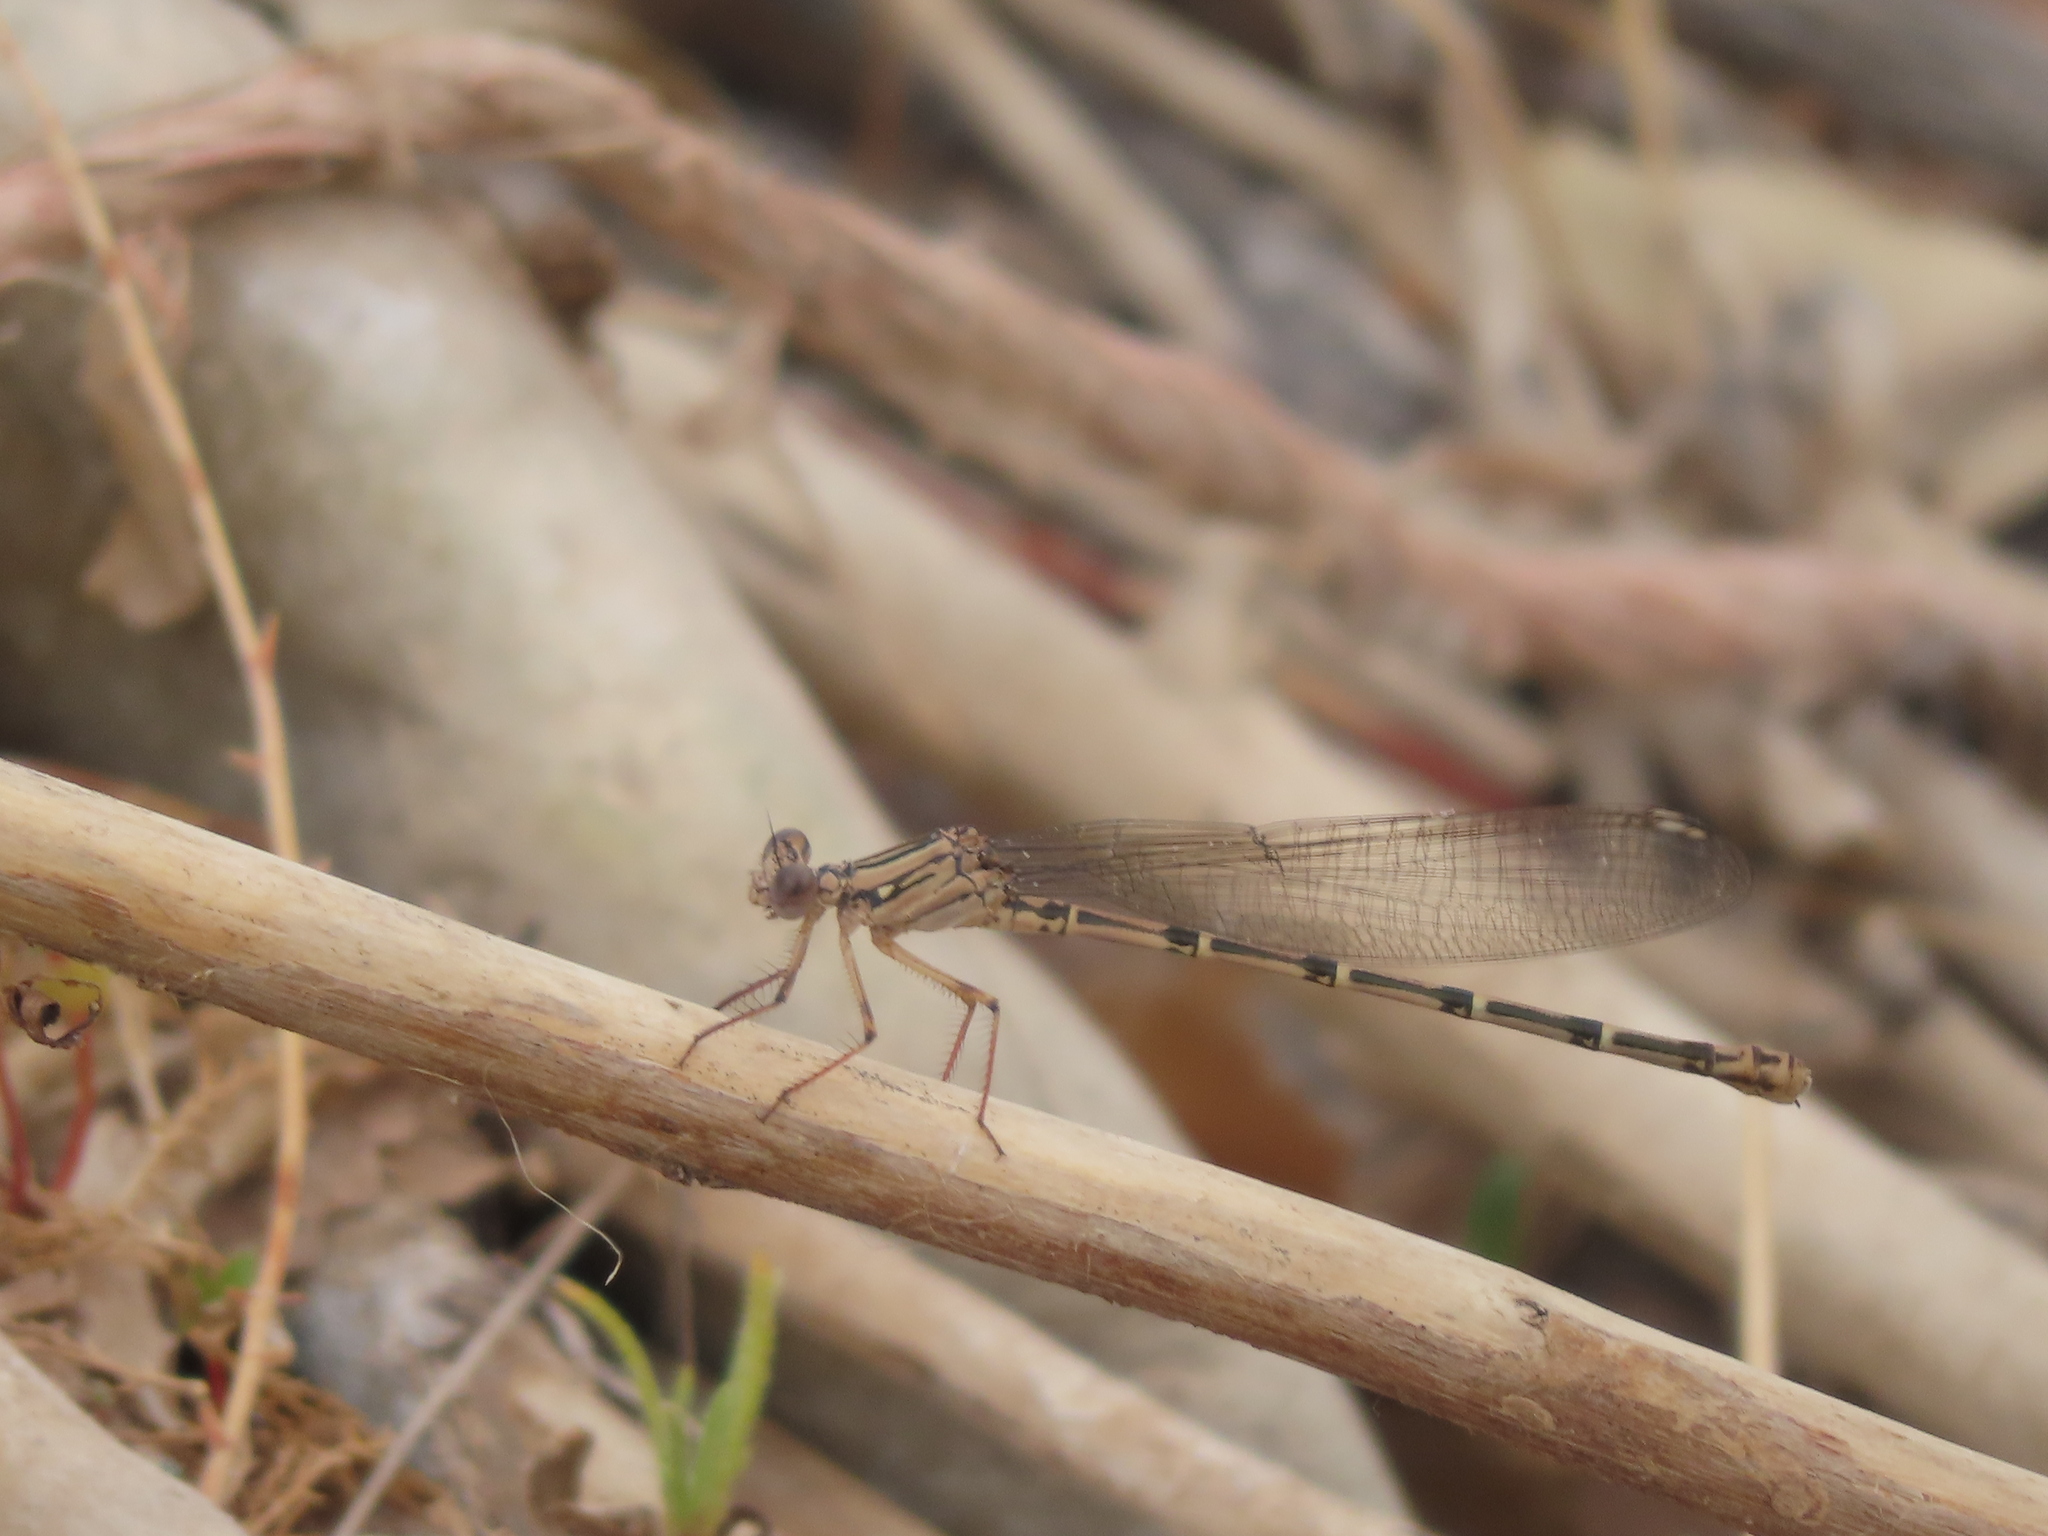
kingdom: Animalia
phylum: Arthropoda
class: Insecta
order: Odonata
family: Coenagrionidae
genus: Argia
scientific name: Argia lugens
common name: Sooty dancer
